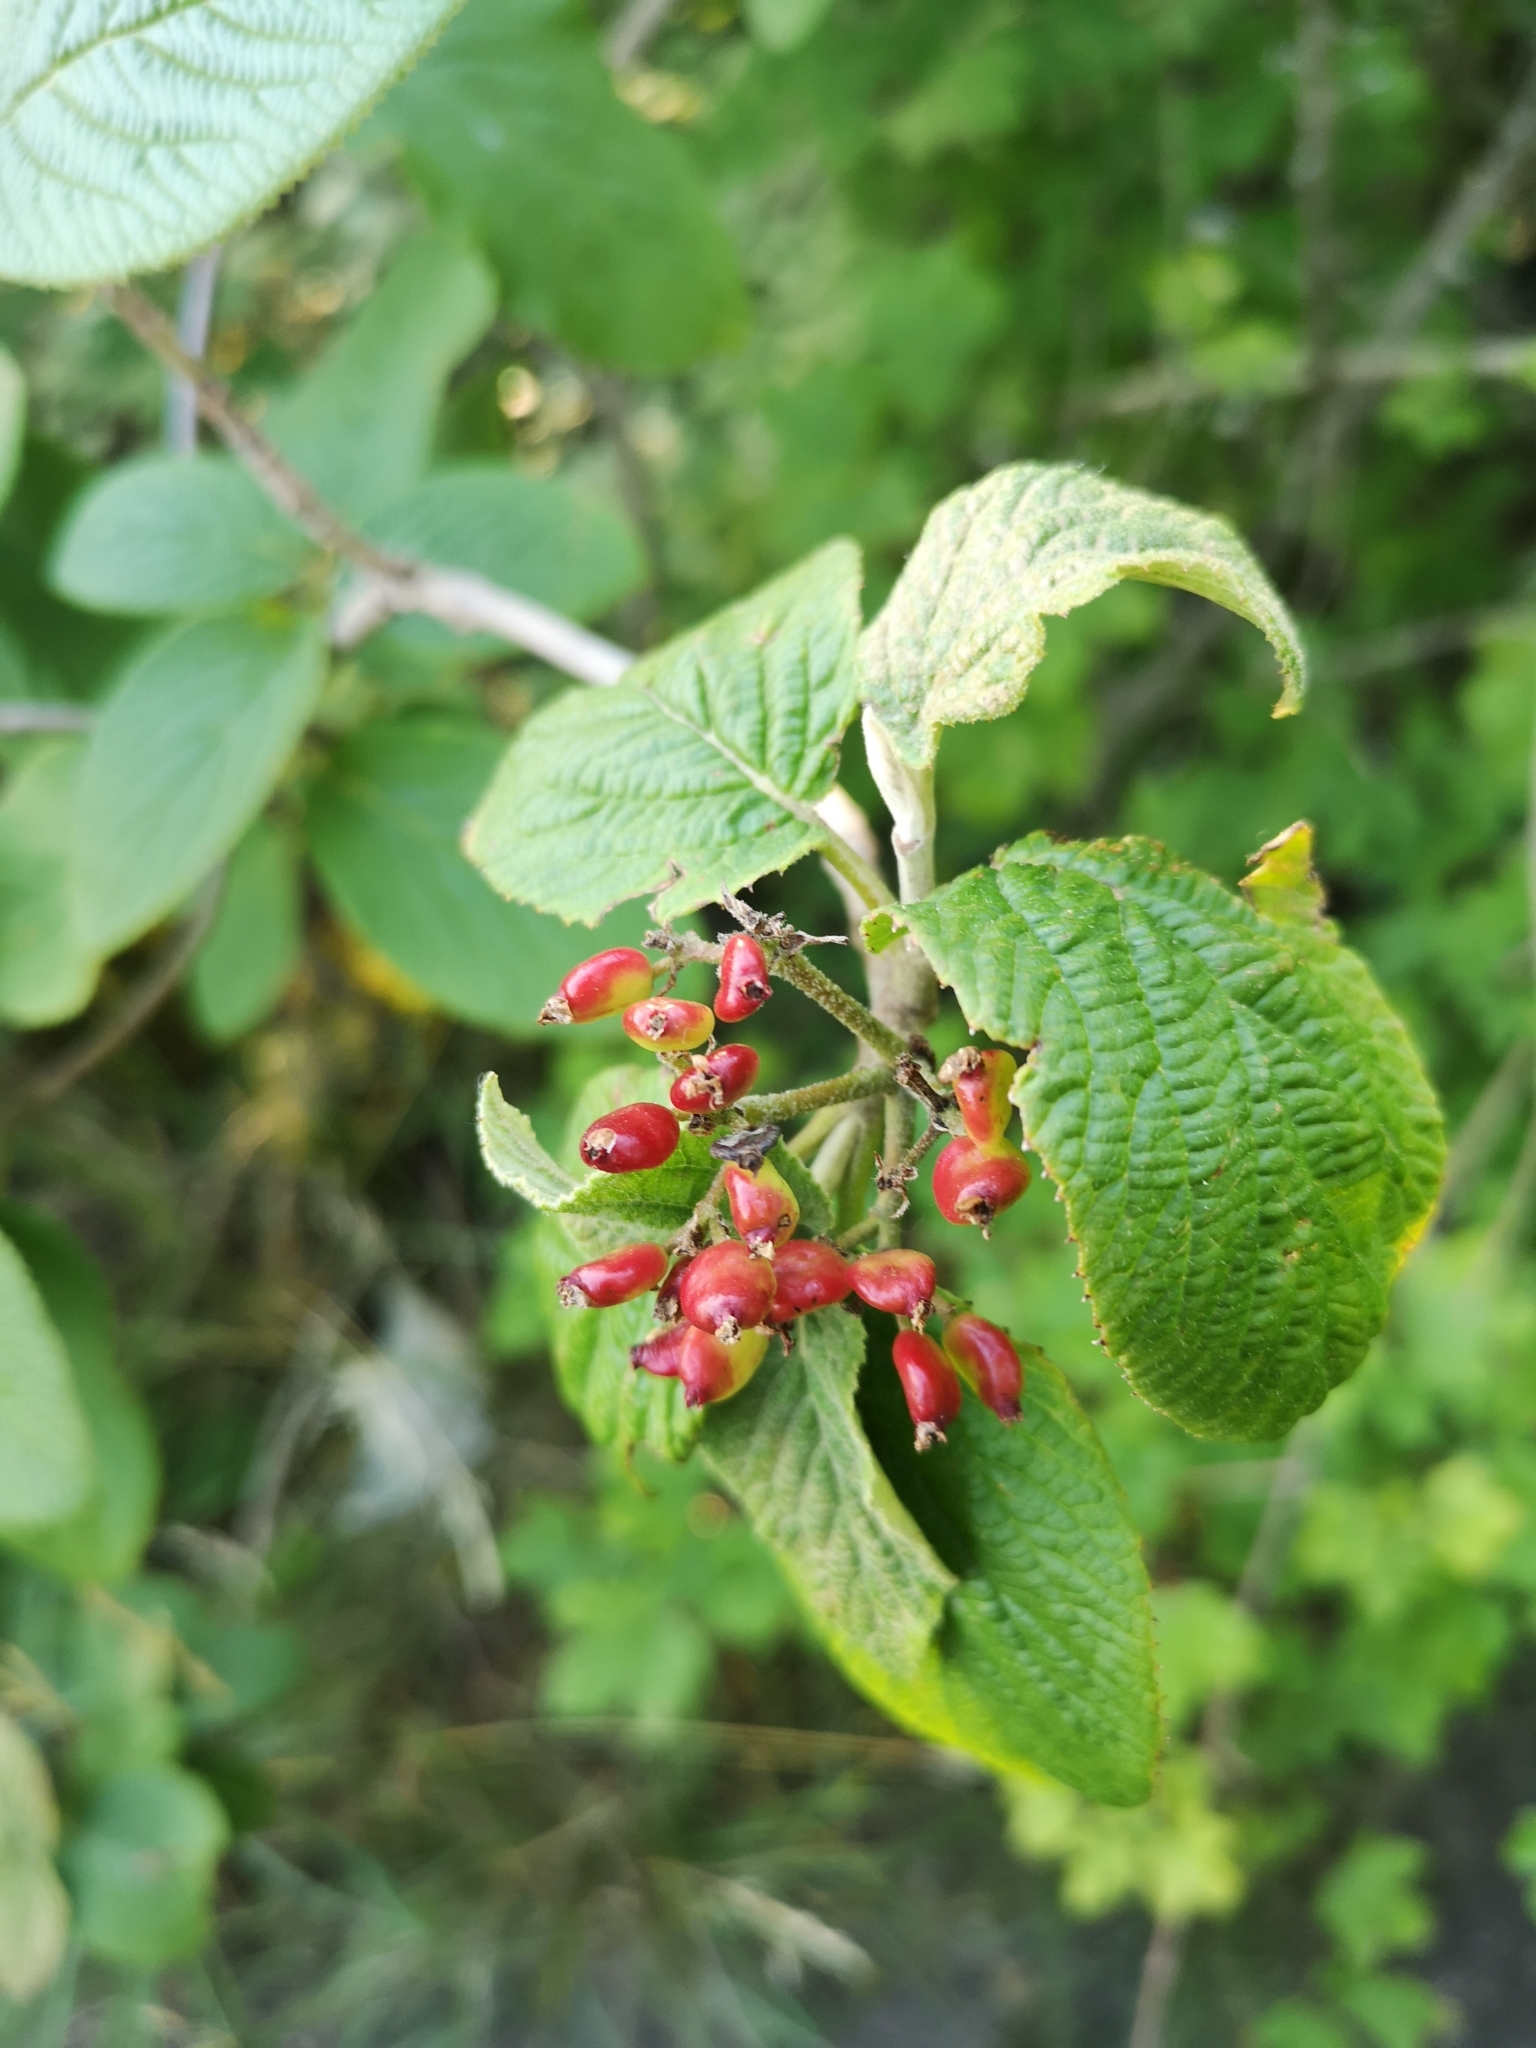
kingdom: Plantae
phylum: Tracheophyta
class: Magnoliopsida
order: Dipsacales
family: Viburnaceae
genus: Viburnum
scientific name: Viburnum lantana
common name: Wayfaring tree
